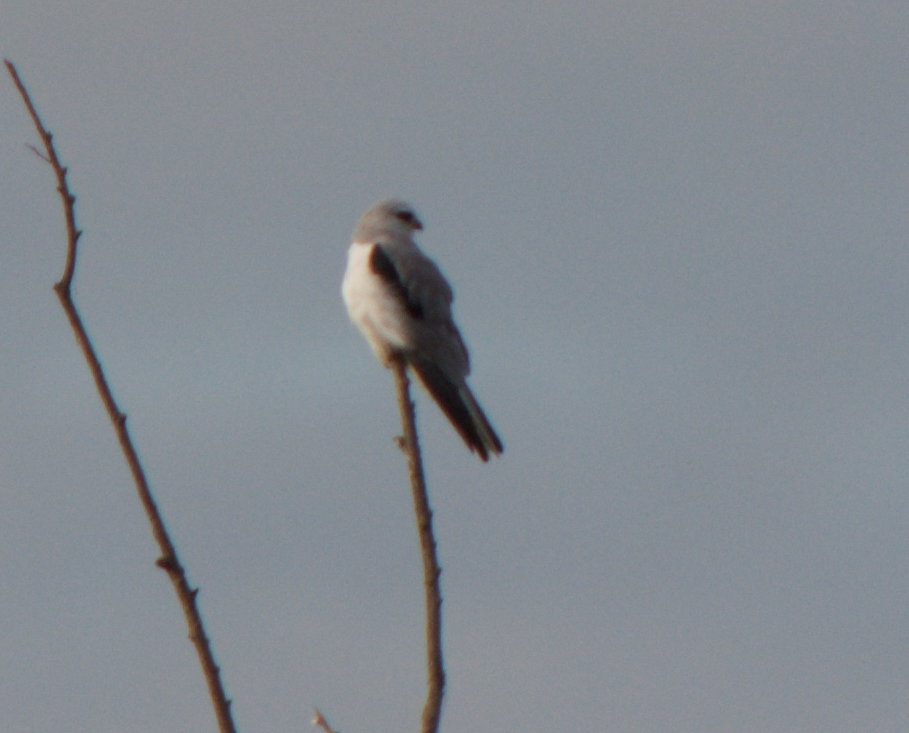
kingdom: Animalia
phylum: Chordata
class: Aves
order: Accipitriformes
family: Accipitridae
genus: Elanus
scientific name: Elanus leucurus
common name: White-tailed kite
